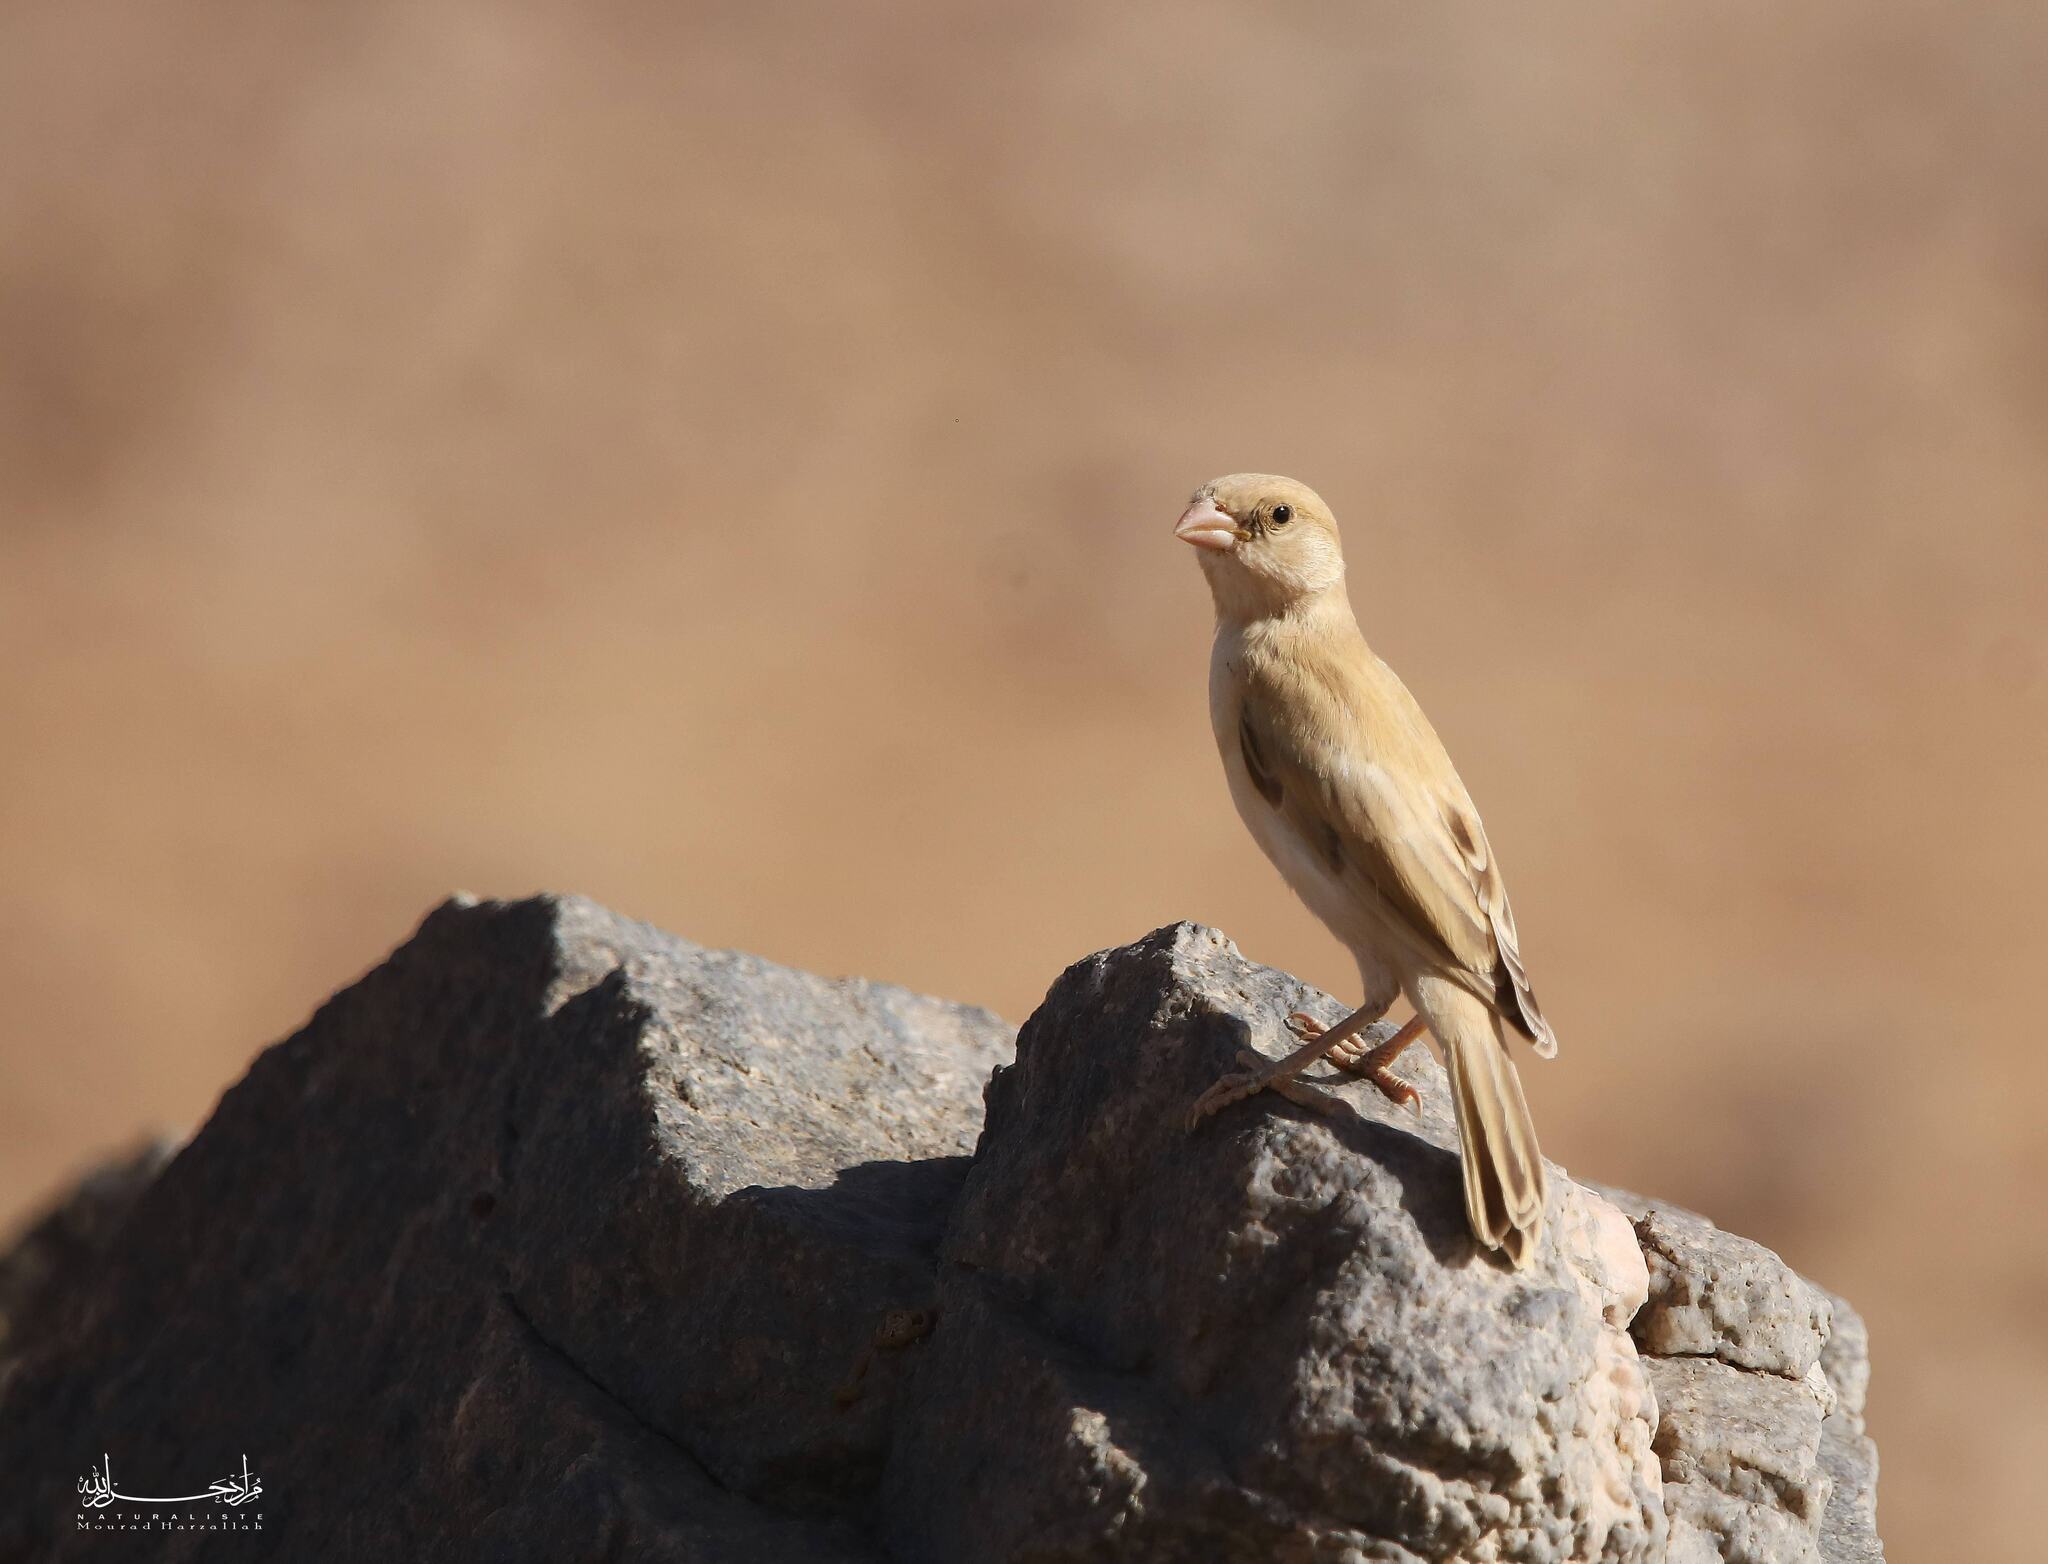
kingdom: Animalia
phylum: Chordata
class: Aves
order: Passeriformes
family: Passeridae
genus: Passer
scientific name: Passer simplex
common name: Desert sparrow
